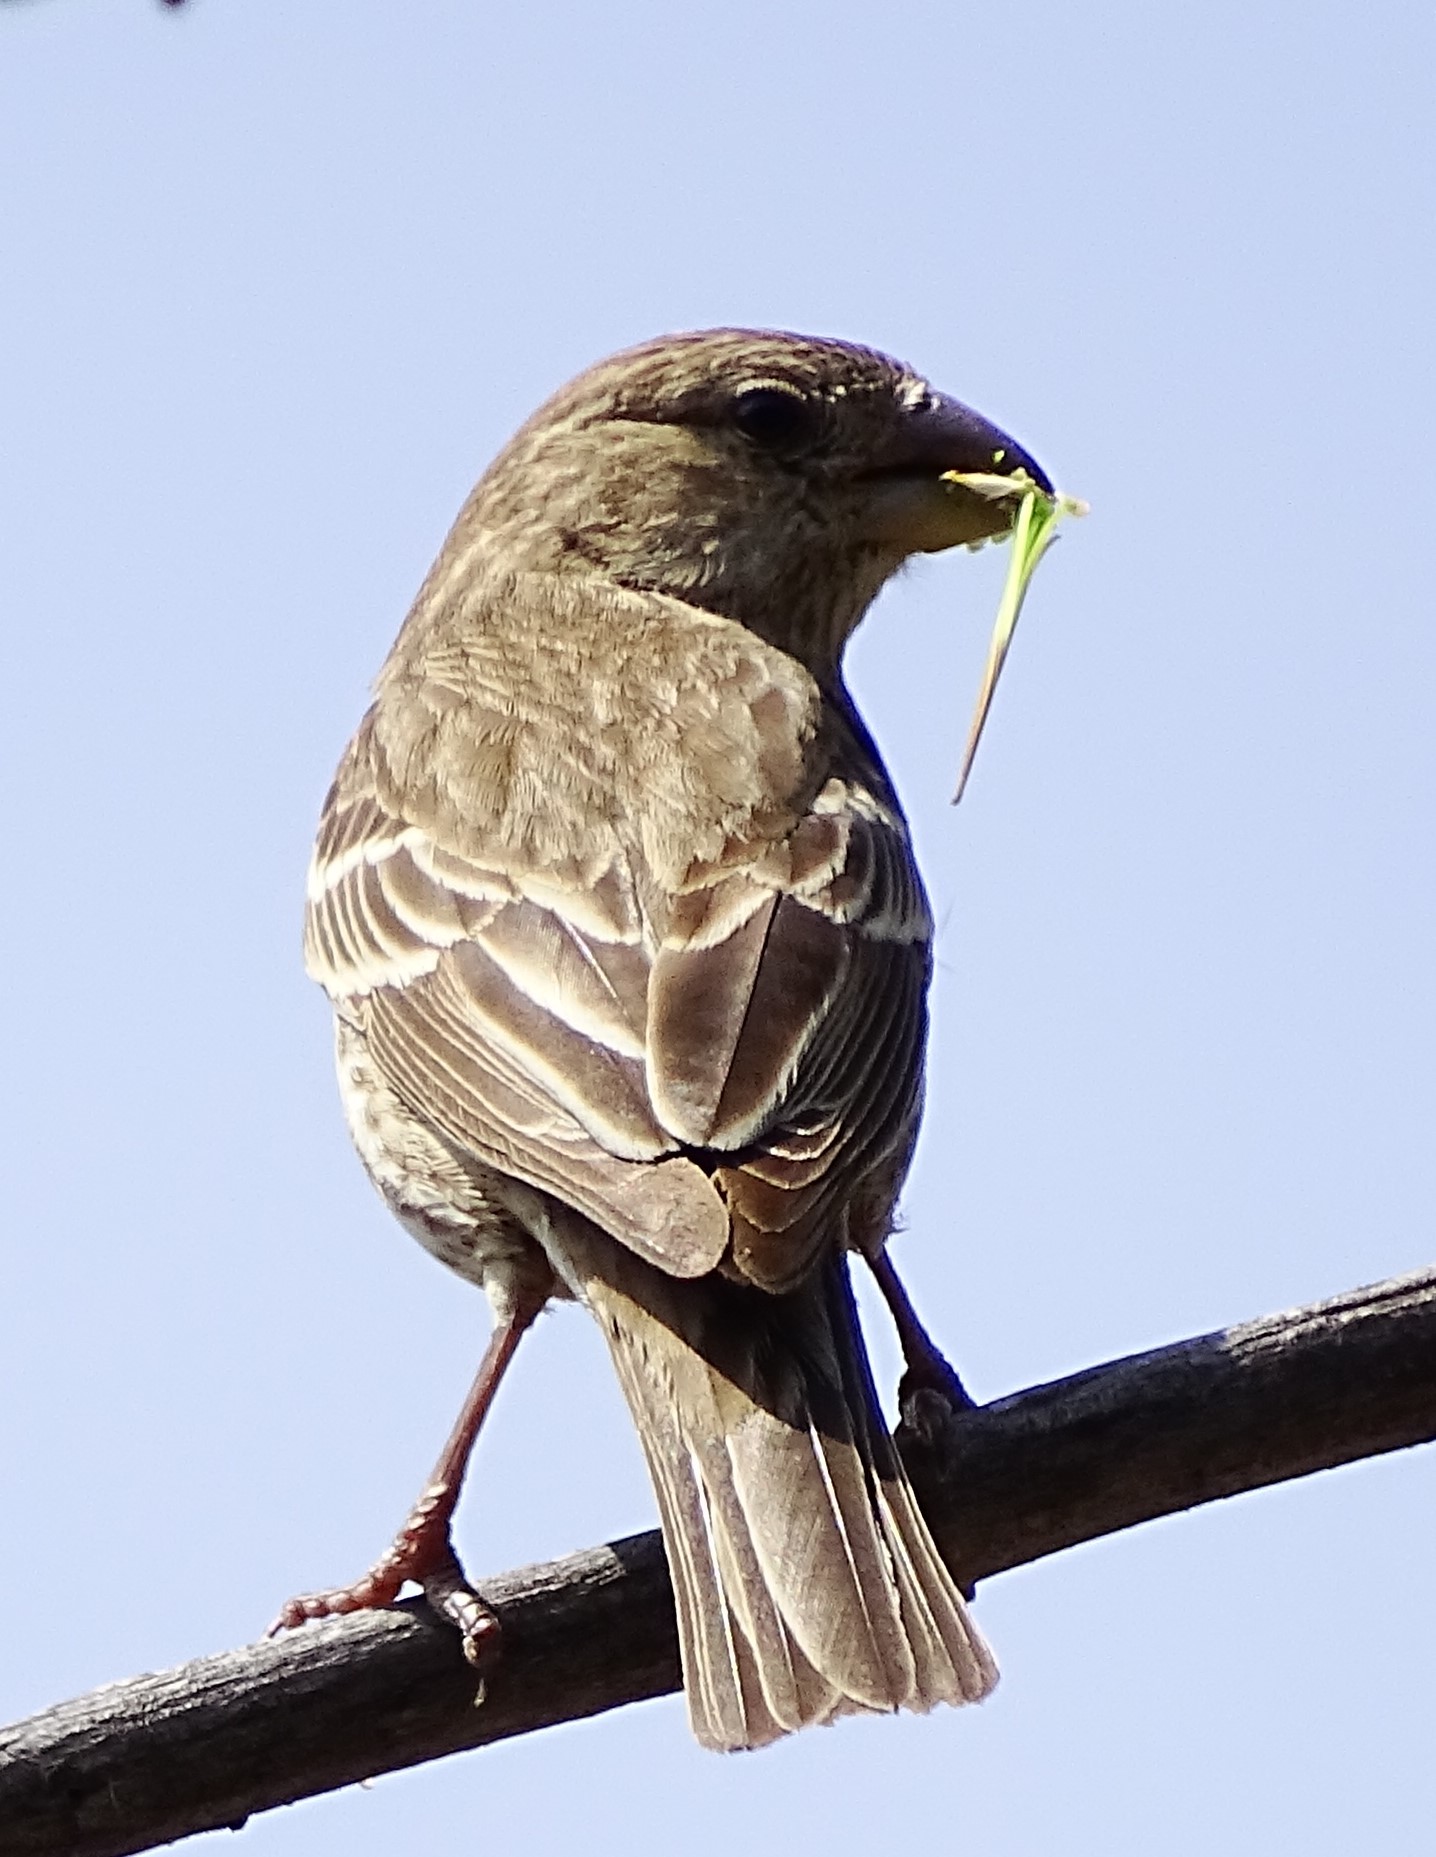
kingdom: Animalia
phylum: Chordata
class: Aves
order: Passeriformes
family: Fringillidae
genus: Haemorhous
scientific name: Haemorhous mexicanus
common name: House finch
